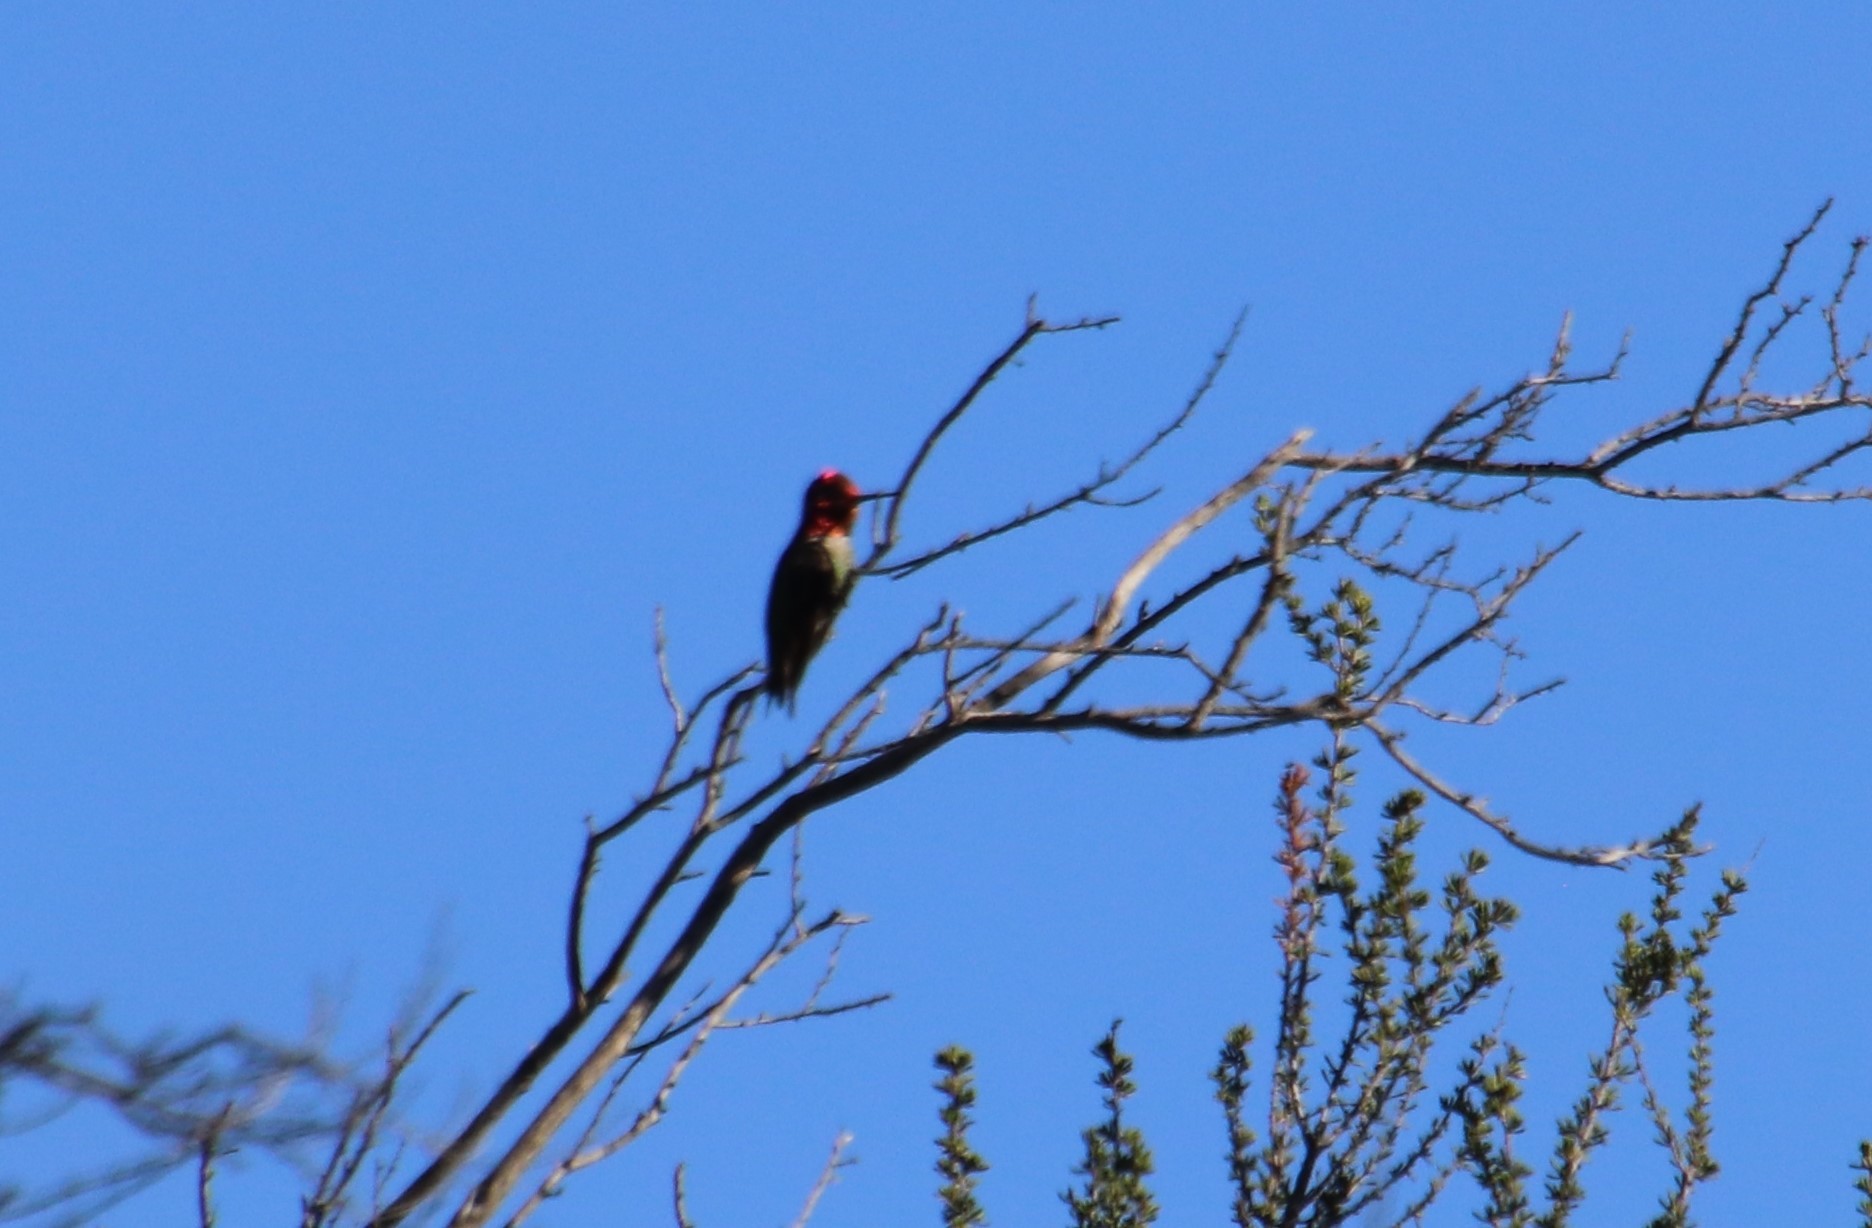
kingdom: Animalia
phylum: Chordata
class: Aves
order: Apodiformes
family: Trochilidae
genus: Calypte
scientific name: Calypte anna
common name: Anna's hummingbird
